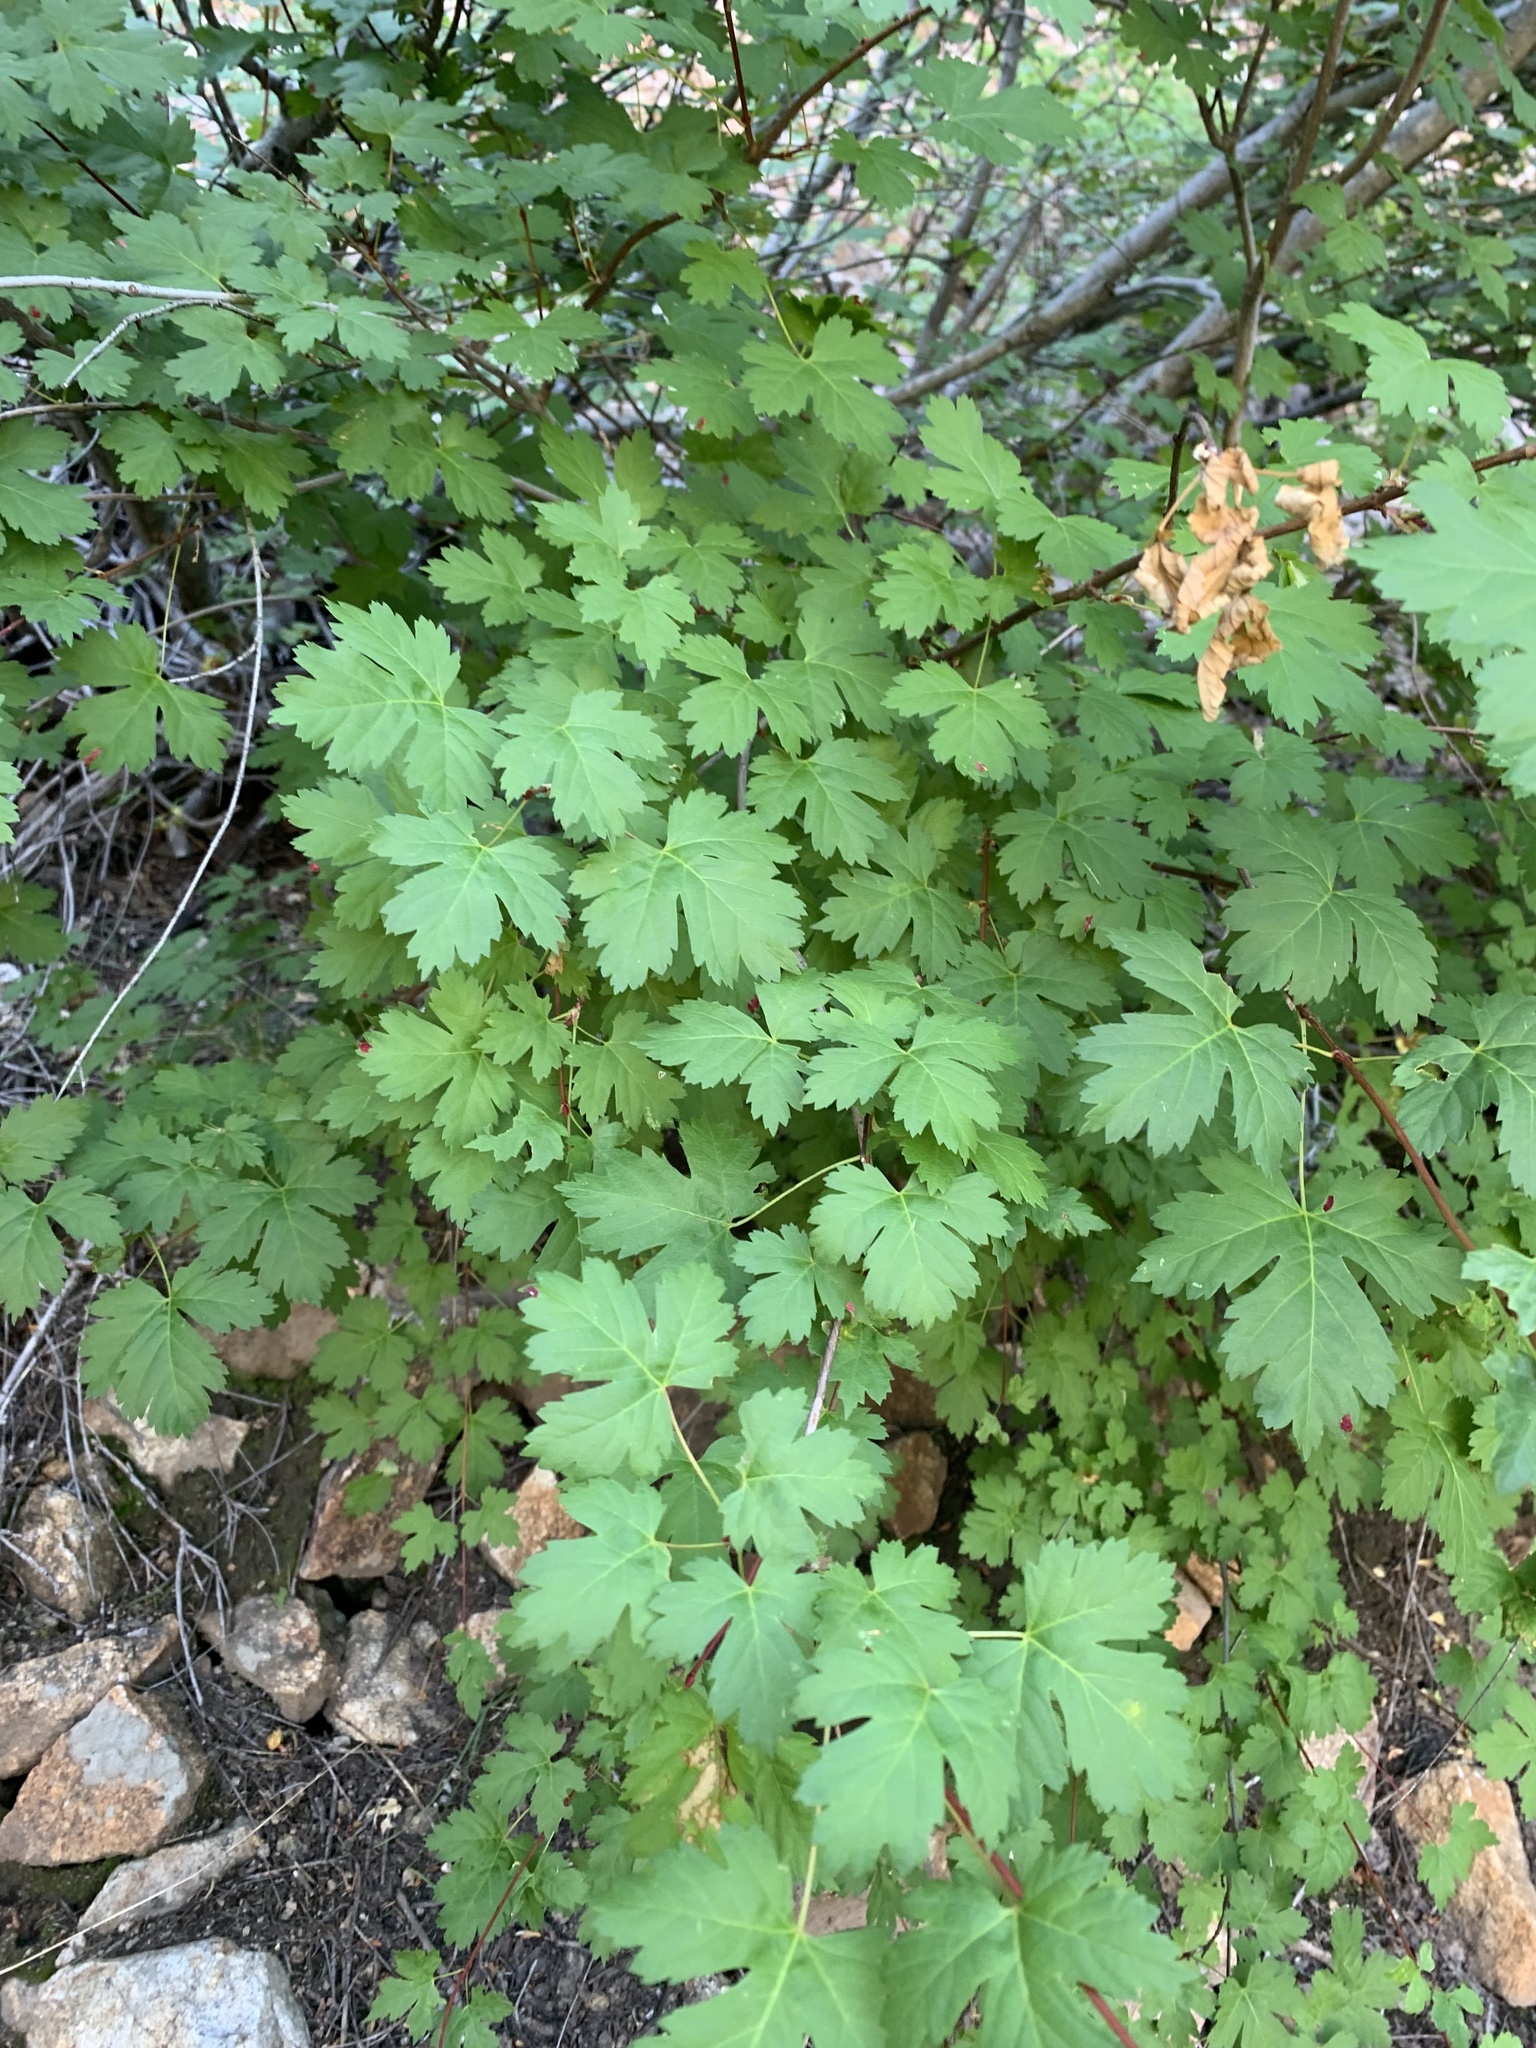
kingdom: Plantae
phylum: Tracheophyta
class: Magnoliopsida
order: Sapindales
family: Sapindaceae
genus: Acer
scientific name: Acer glabrum
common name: Rocky mountain maple
